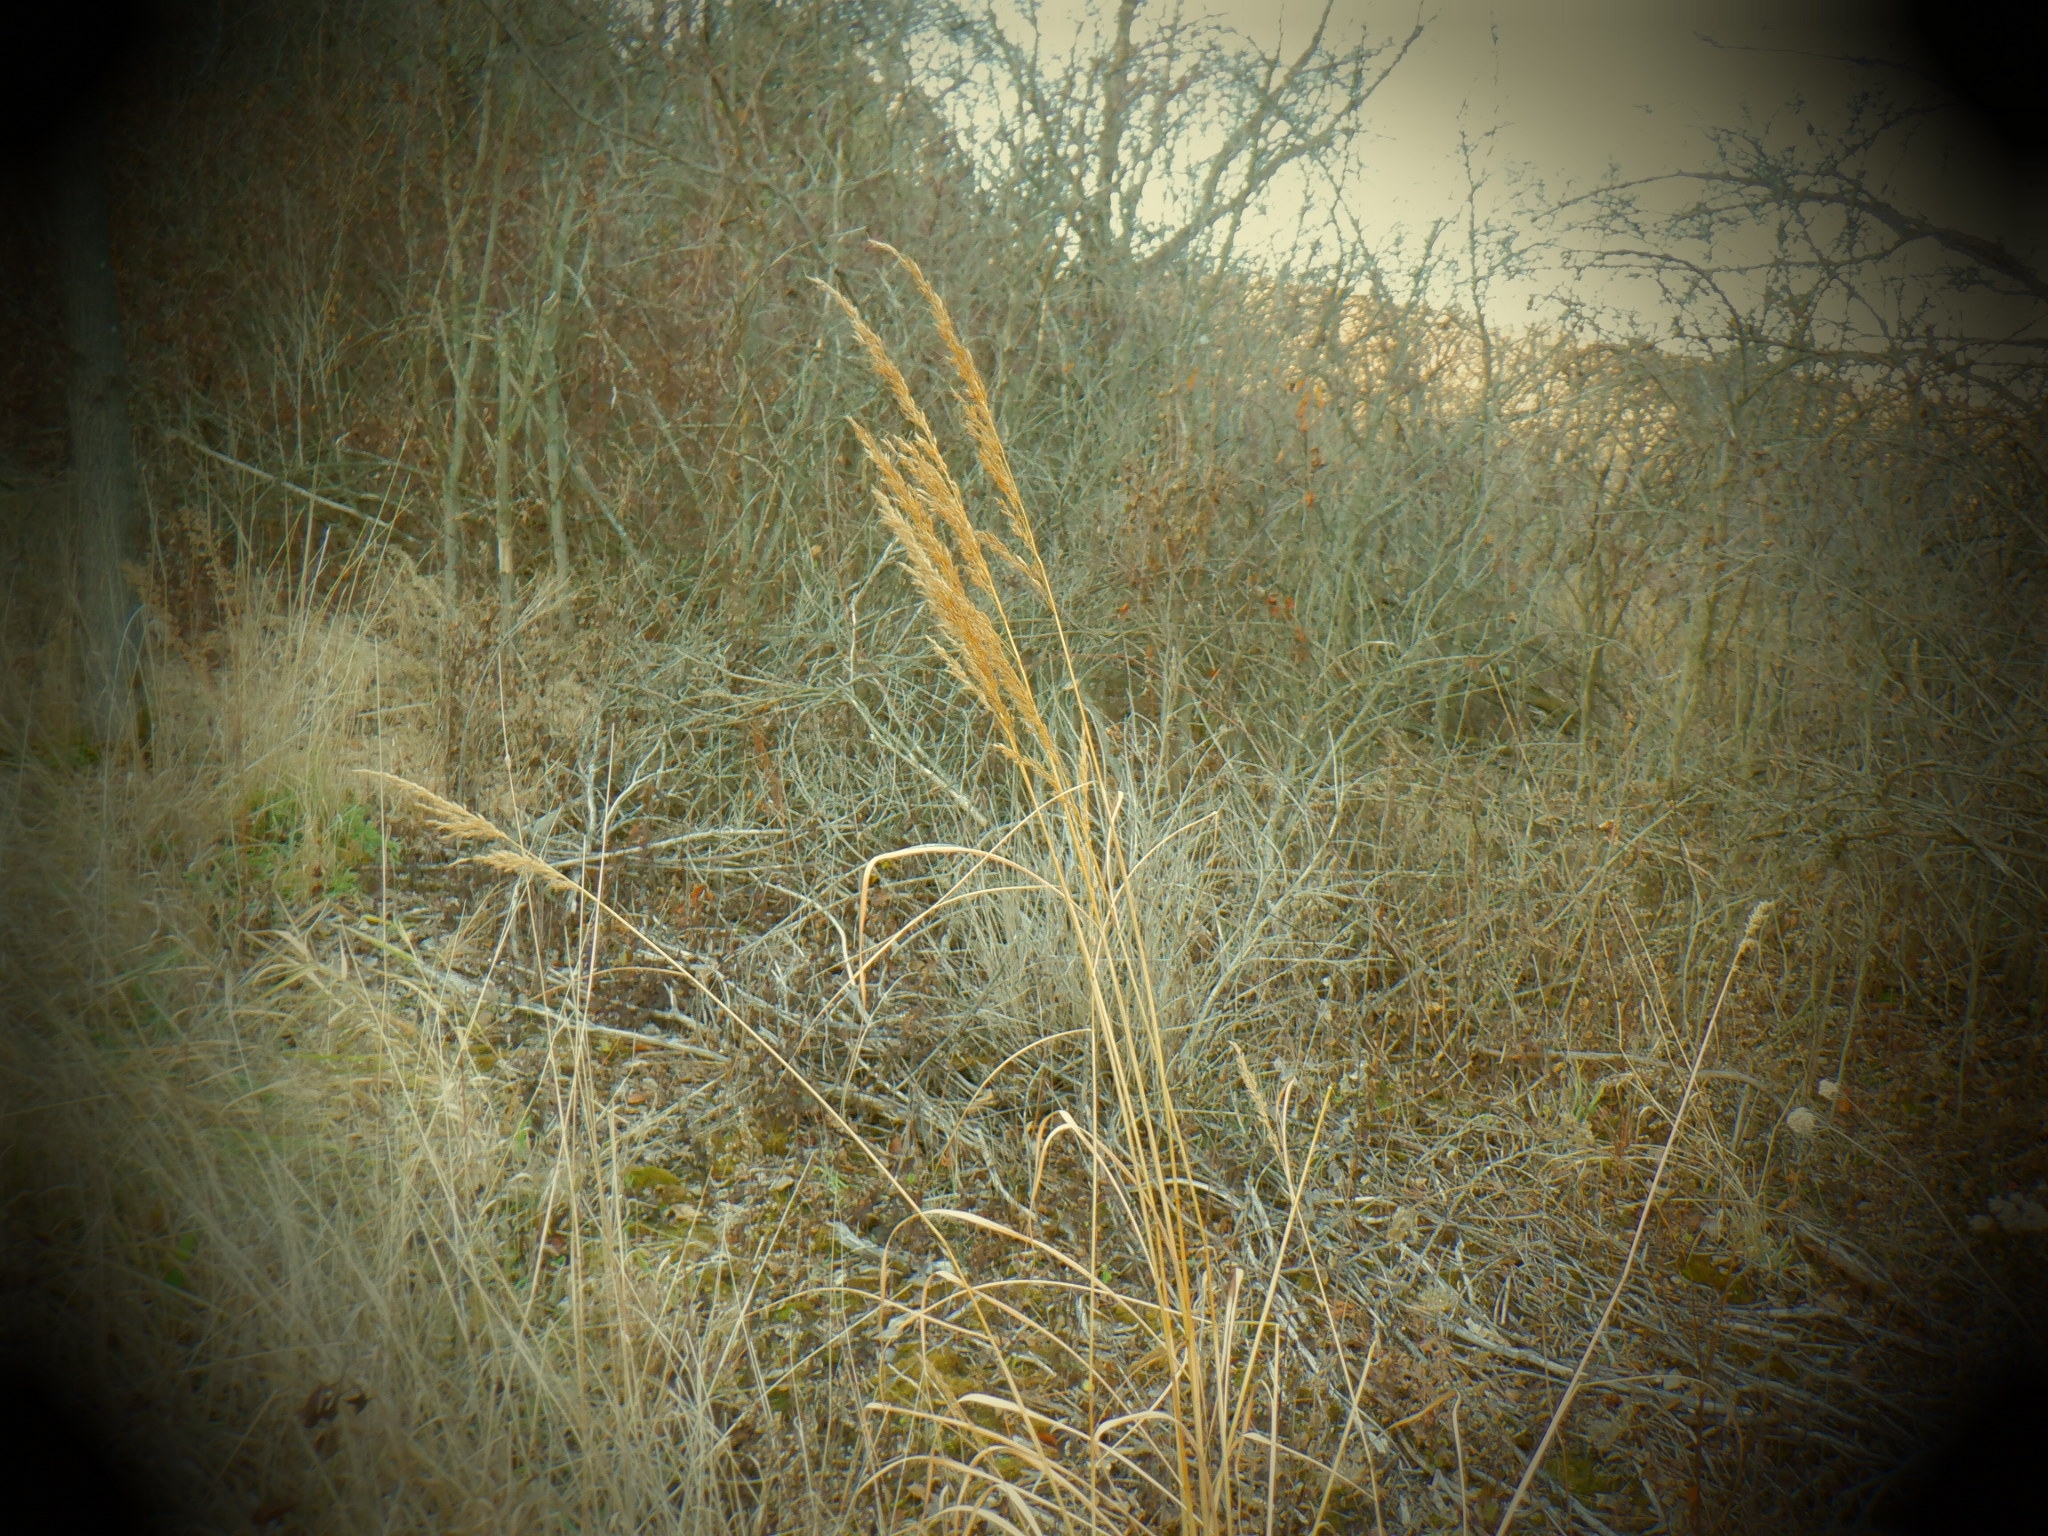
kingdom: Plantae
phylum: Tracheophyta
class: Liliopsida
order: Poales
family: Poaceae
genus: Sorghastrum
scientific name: Sorghastrum nutans
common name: Indian grass
